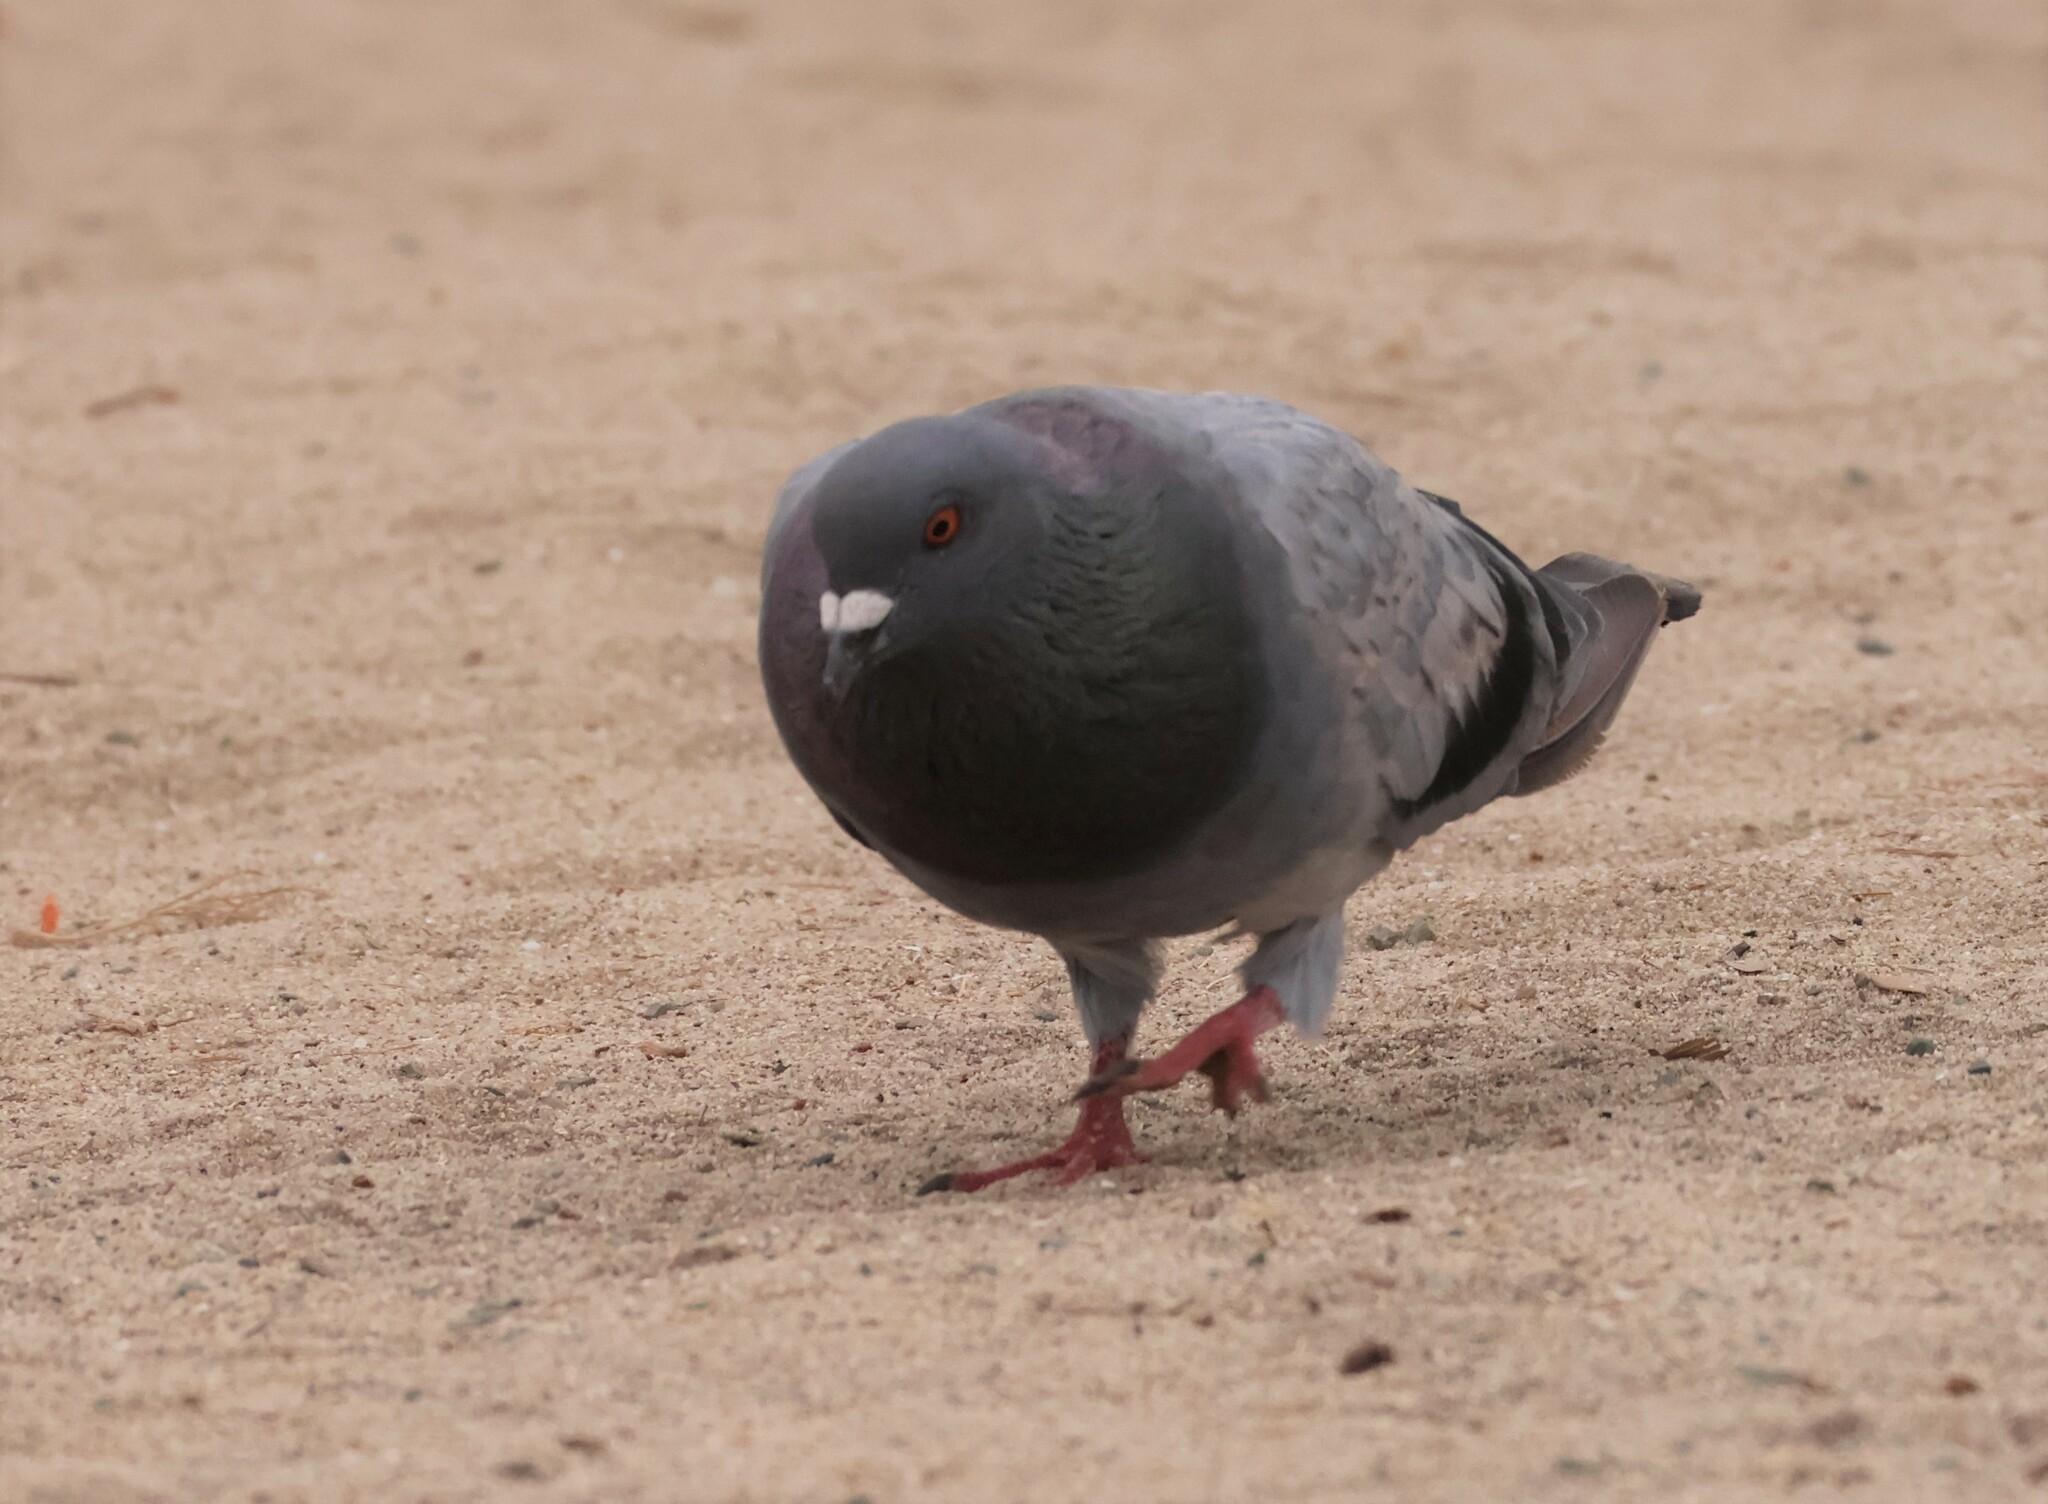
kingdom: Animalia
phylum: Chordata
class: Aves
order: Columbiformes
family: Columbidae
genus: Columba
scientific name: Columba livia
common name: Rock pigeon
